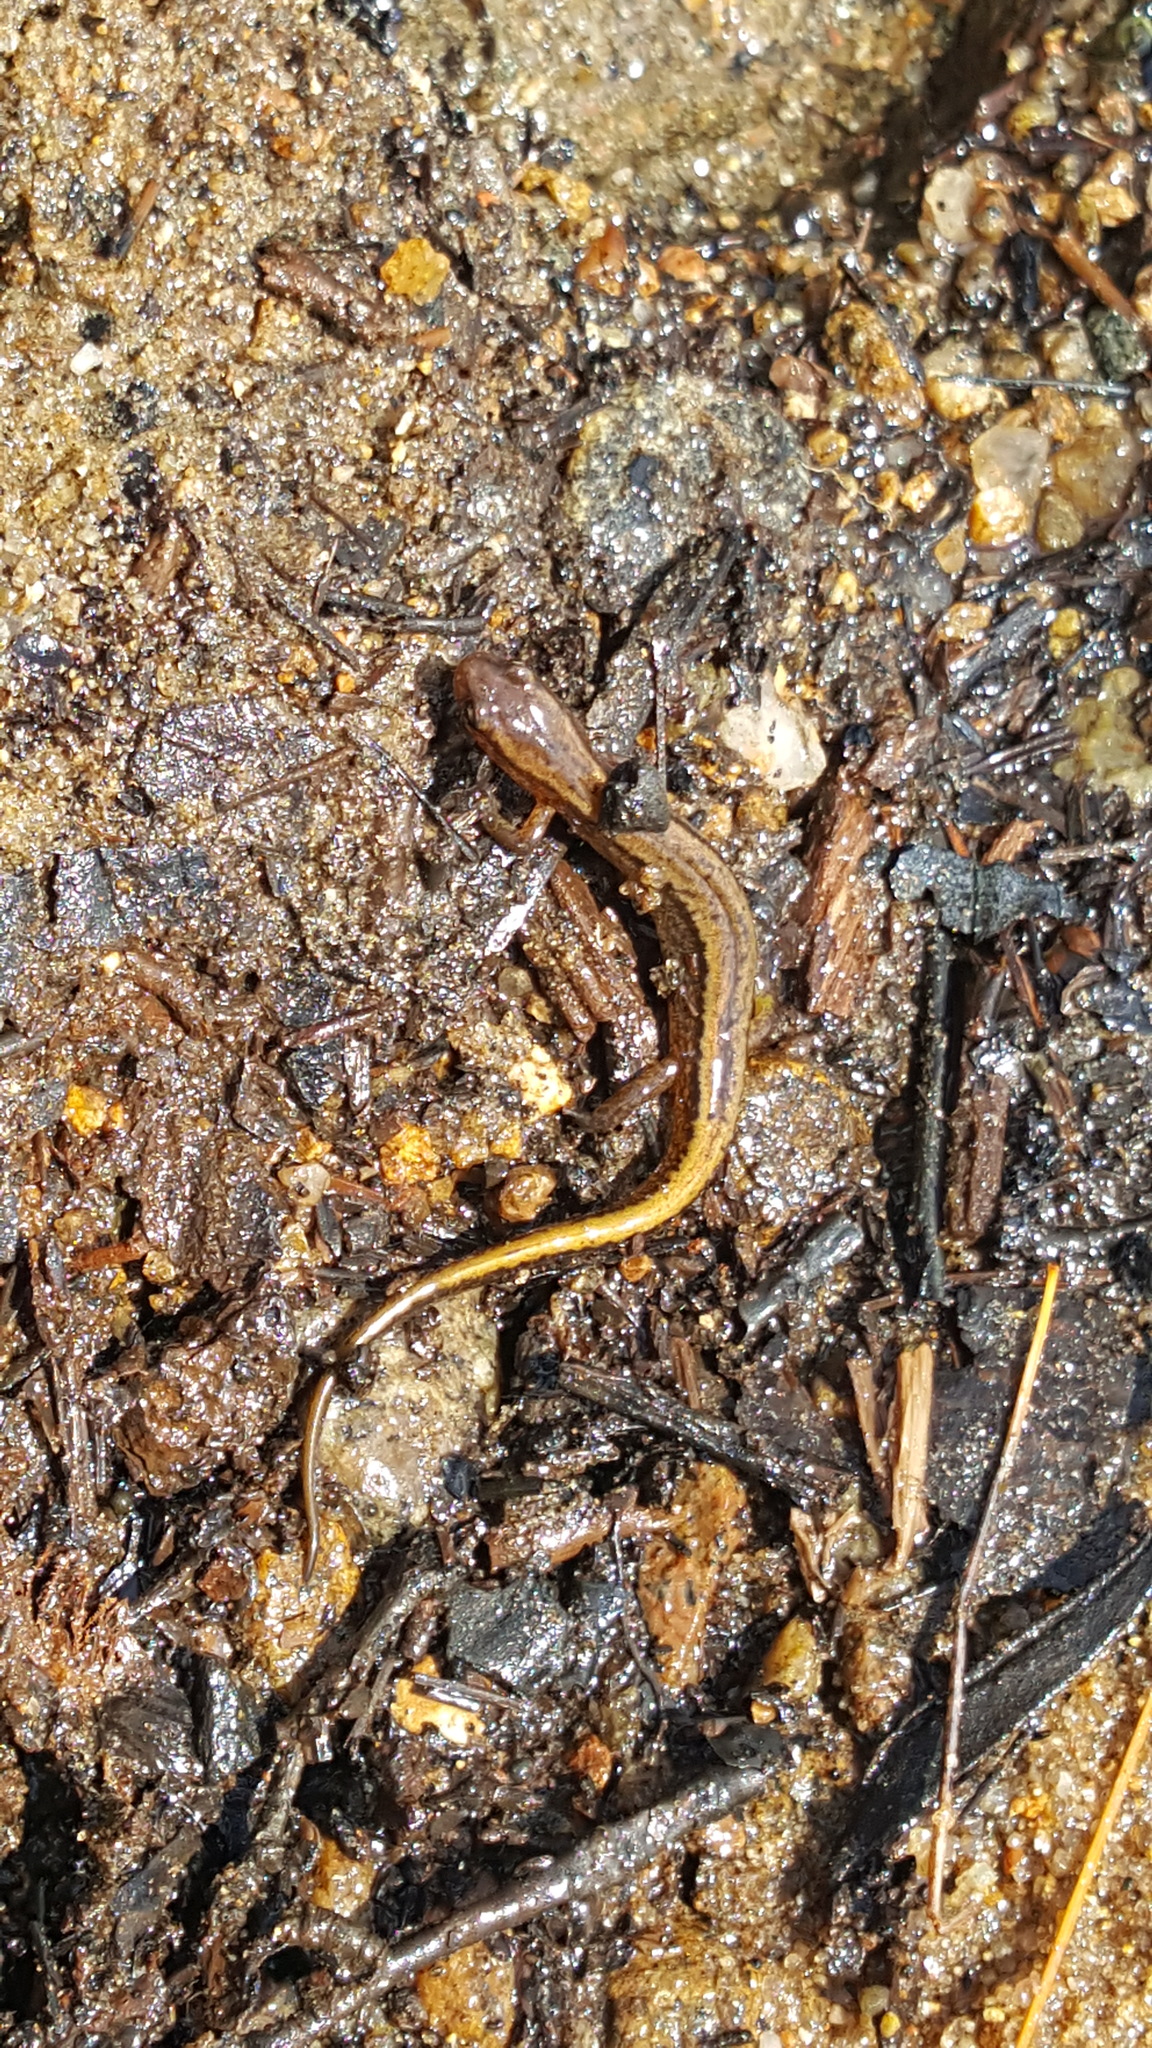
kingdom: Animalia
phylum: Chordata
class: Amphibia
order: Caudata
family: Plethodontidae
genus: Eurycea
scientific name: Eurycea bislineata
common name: Northern two-lined salamander
